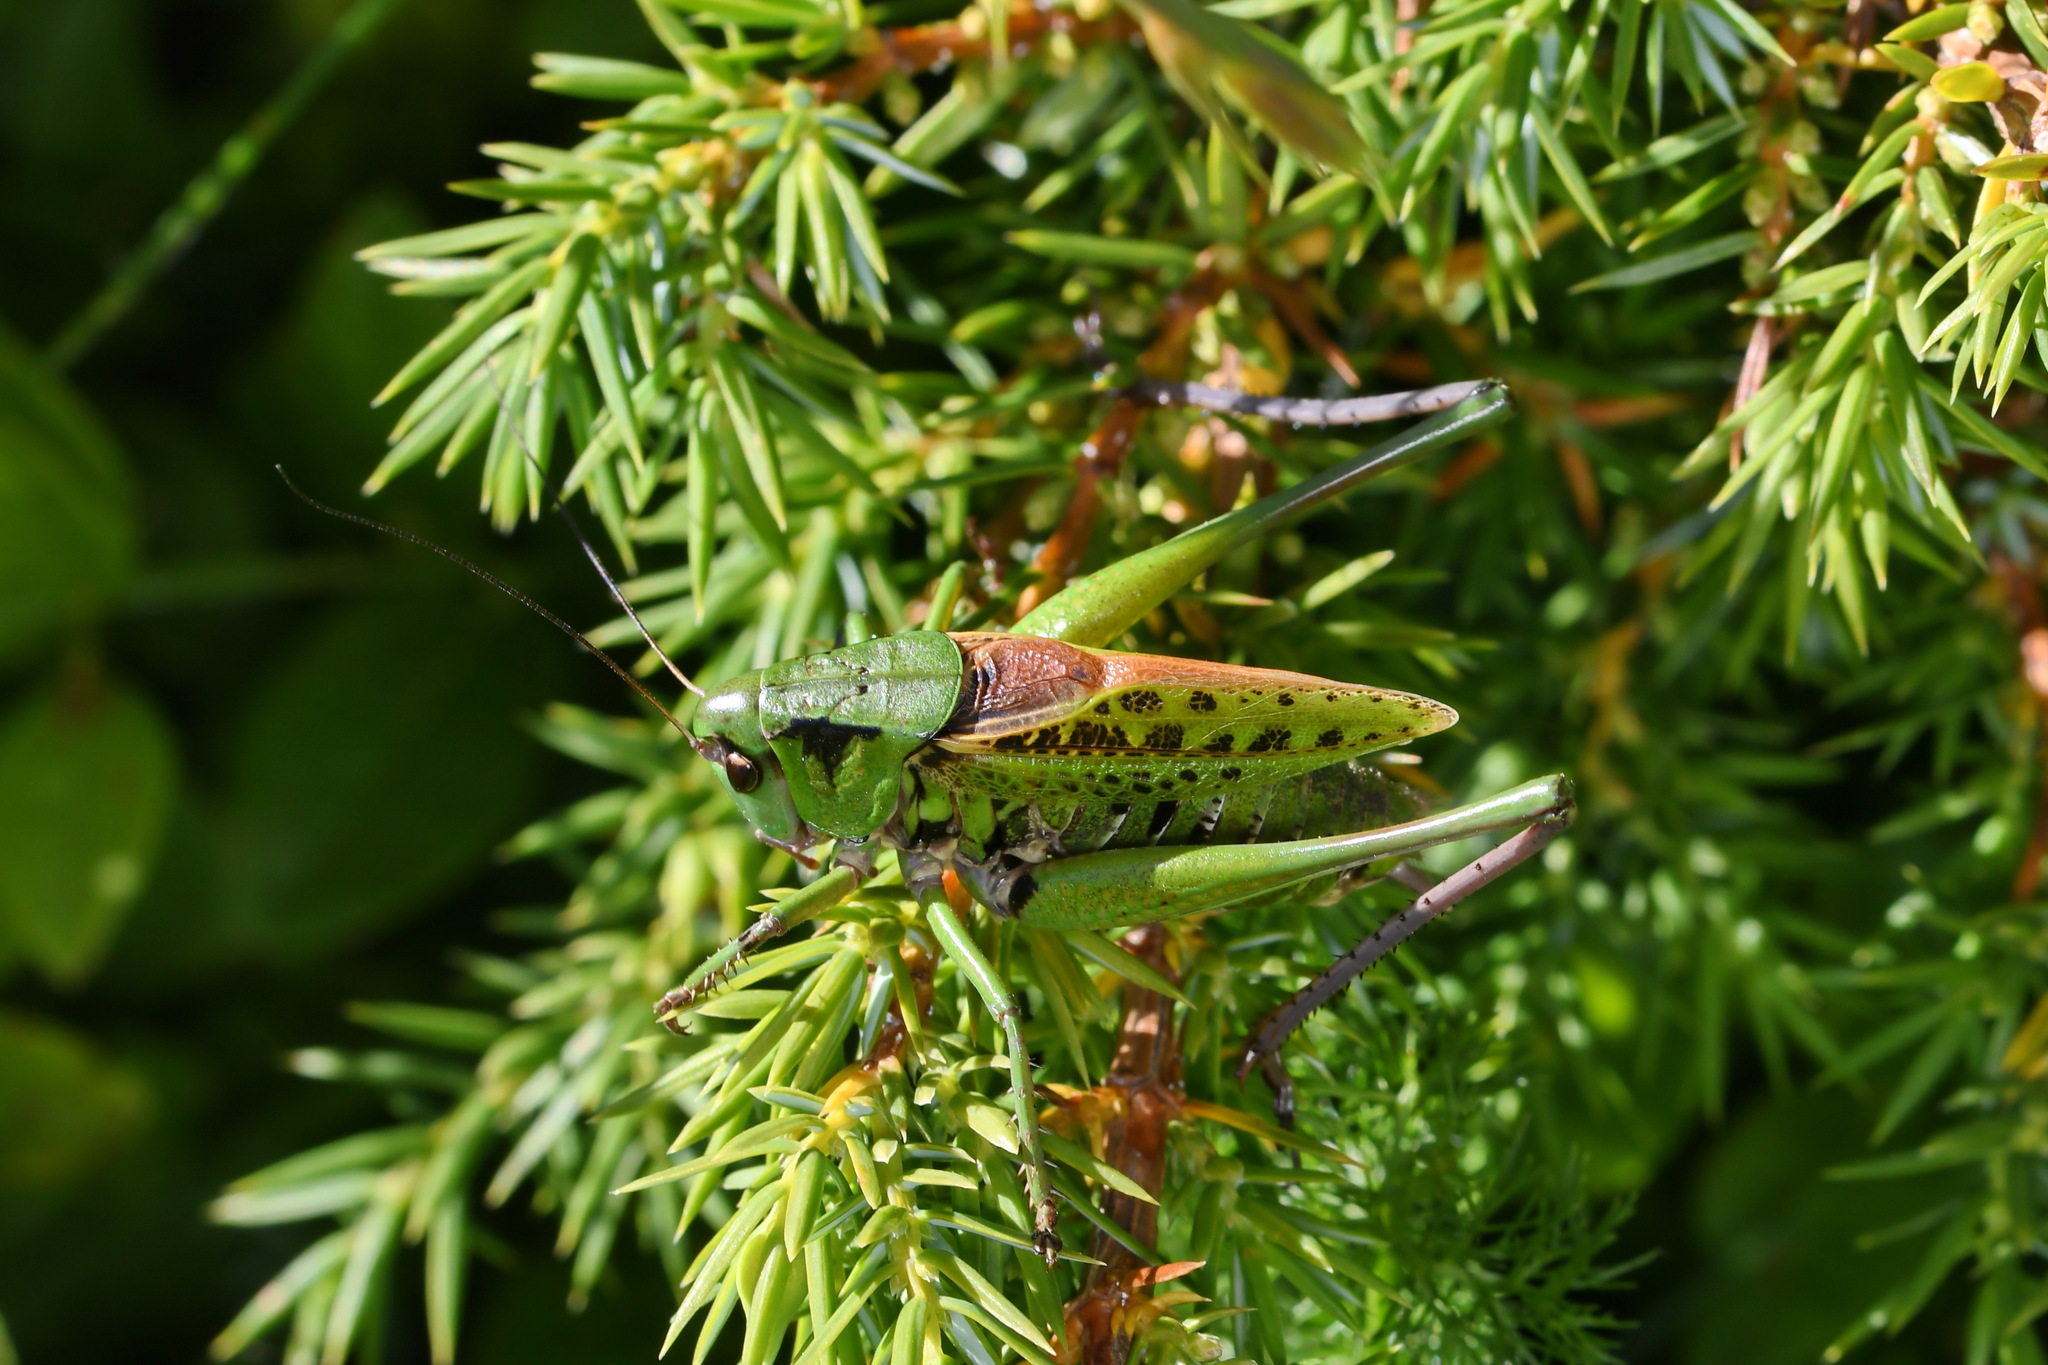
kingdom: Animalia
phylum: Arthropoda
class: Insecta
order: Orthoptera
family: Tettigoniidae
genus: Decticus
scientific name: Decticus verrucivorus
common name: Wart-biter
